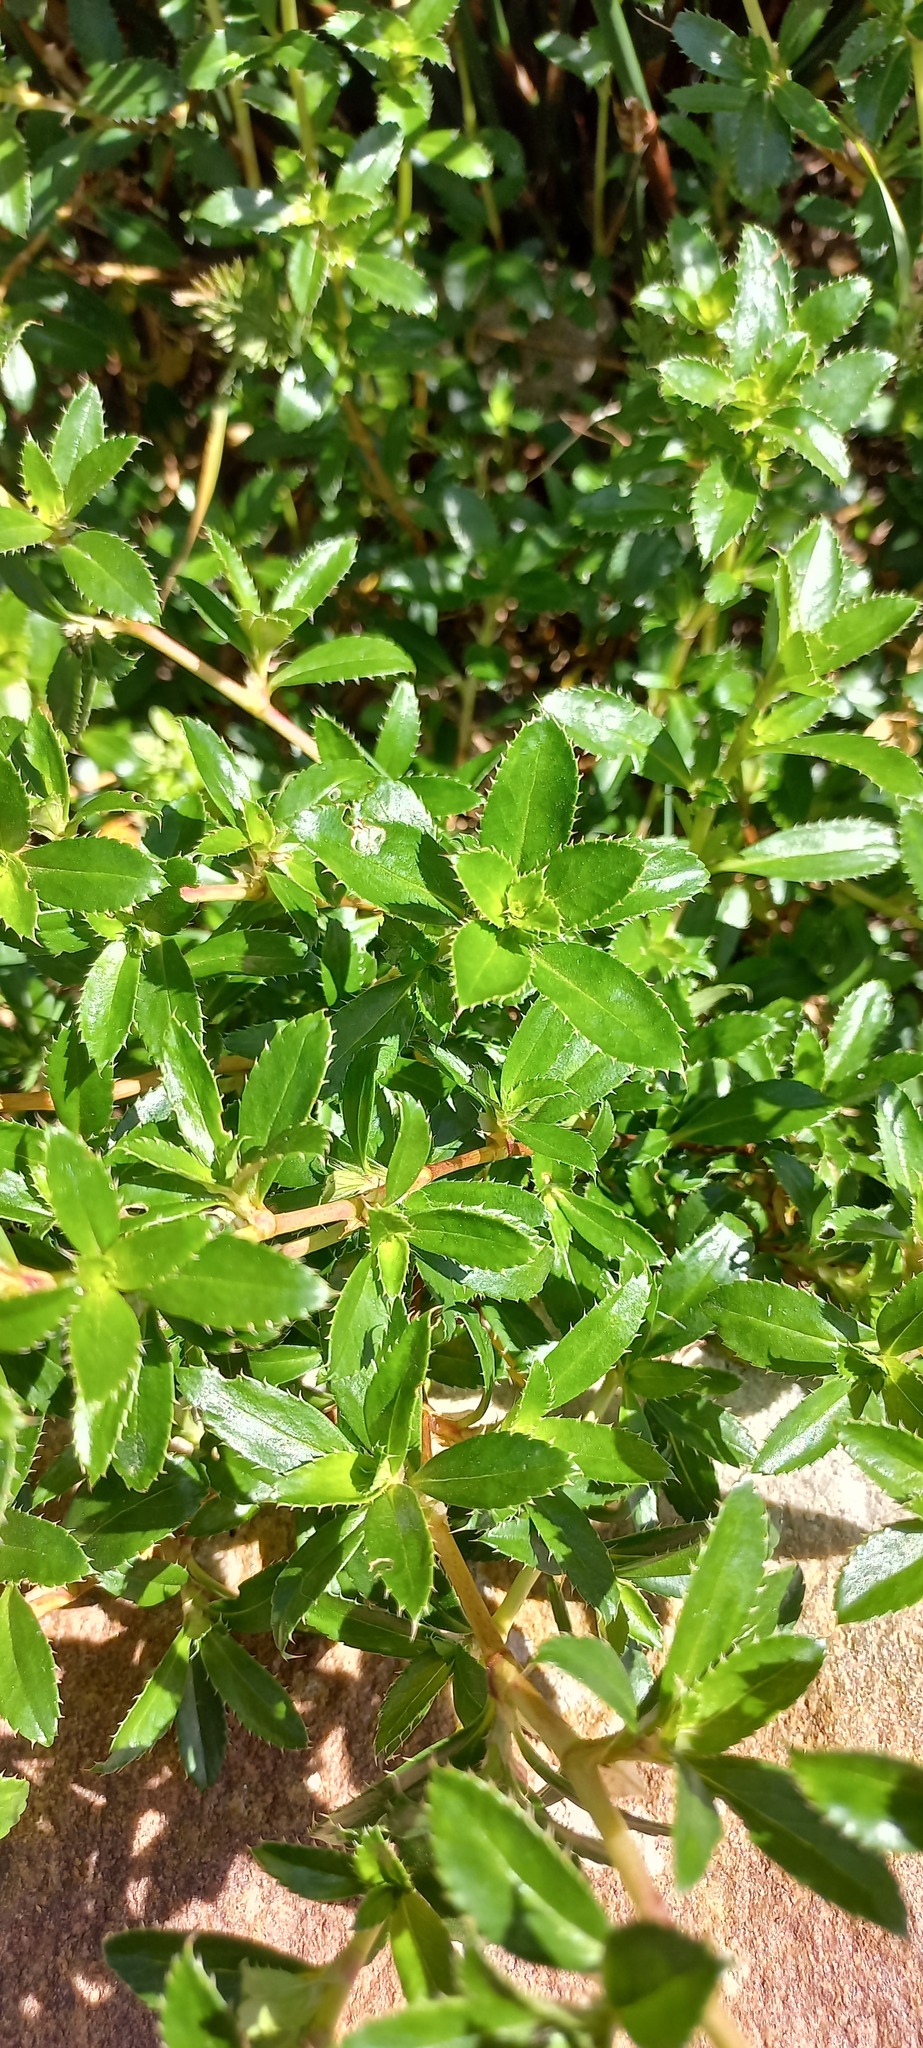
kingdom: Plantae
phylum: Tracheophyta
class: Magnoliopsida
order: Rosales
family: Rosaceae
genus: Cliffortia
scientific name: Cliffortia ferruginea
